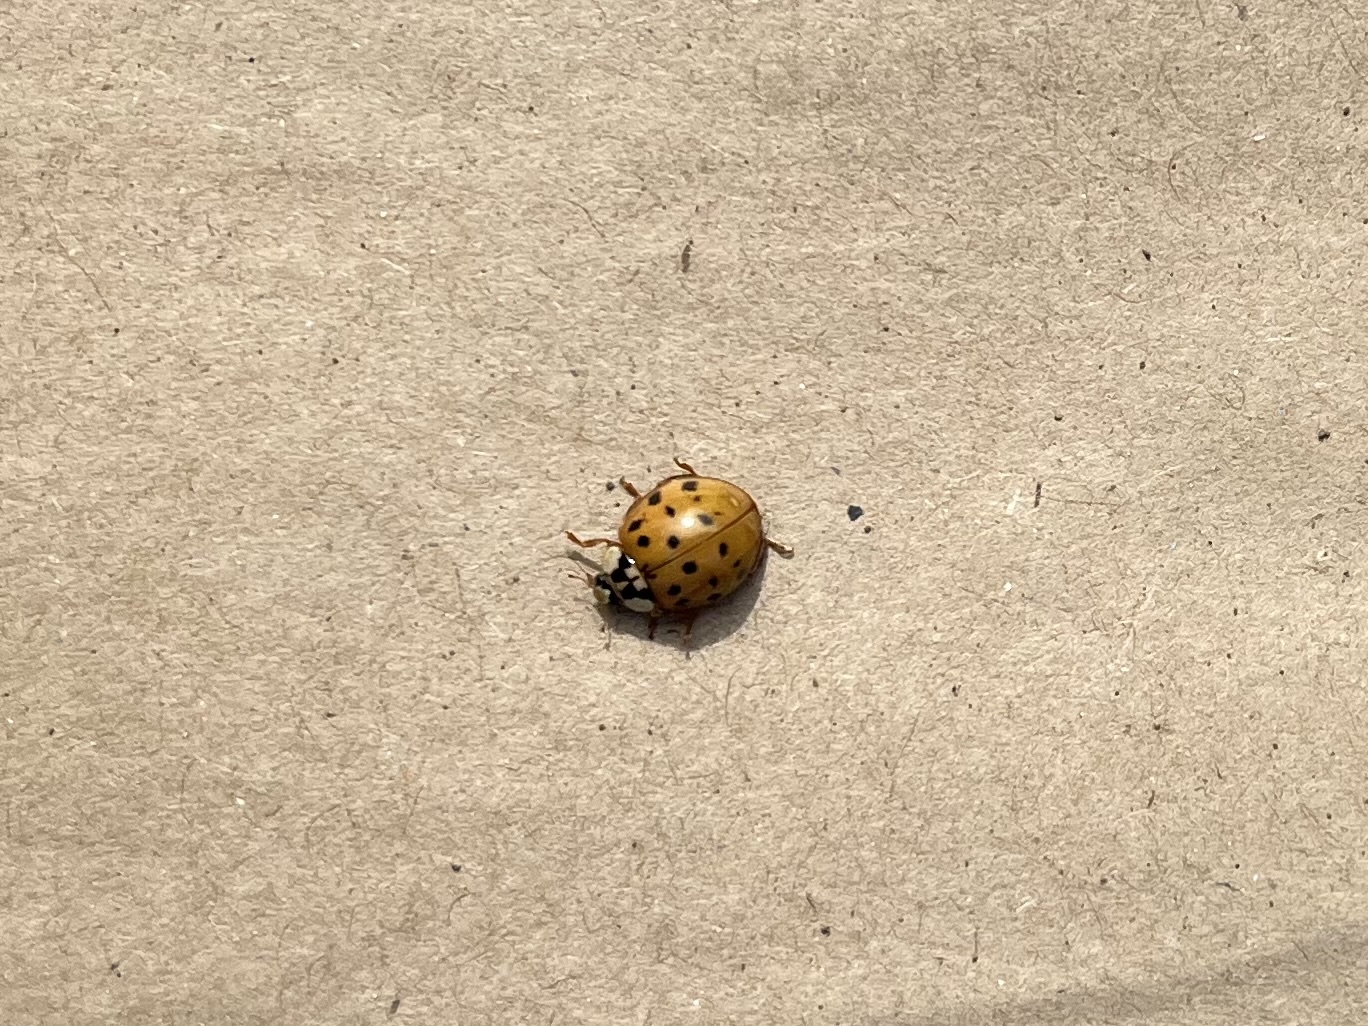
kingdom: Animalia
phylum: Arthropoda
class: Insecta
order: Coleoptera
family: Coccinellidae
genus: Harmonia
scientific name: Harmonia axyridis
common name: Harlequin ladybird
